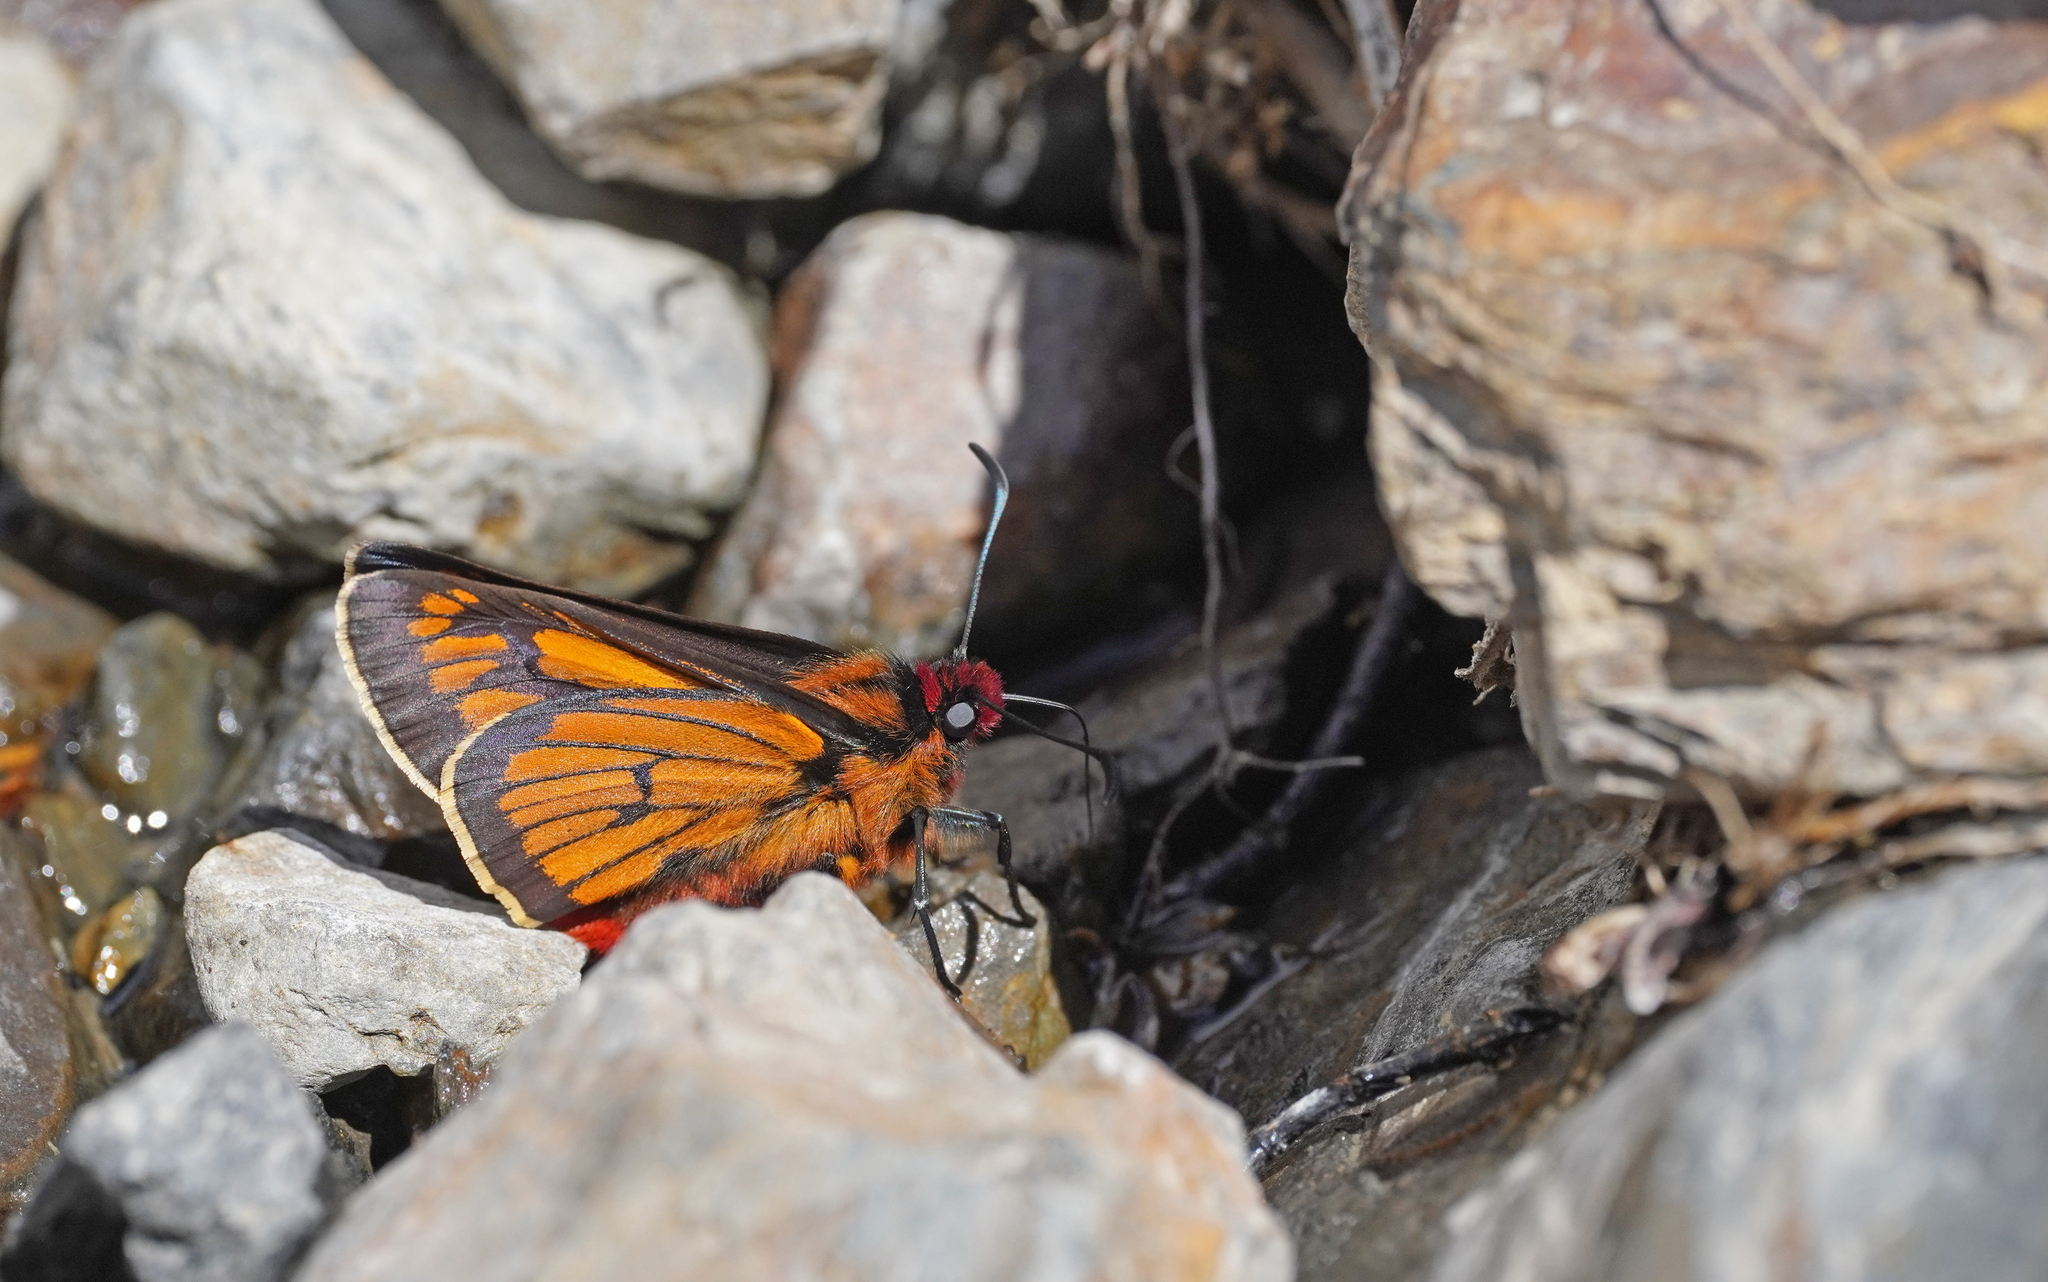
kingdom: Animalia
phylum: Arthropoda
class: Insecta
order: Lepidoptera
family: Hesperiidae
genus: Metardaris
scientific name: Metardaris cosinga
